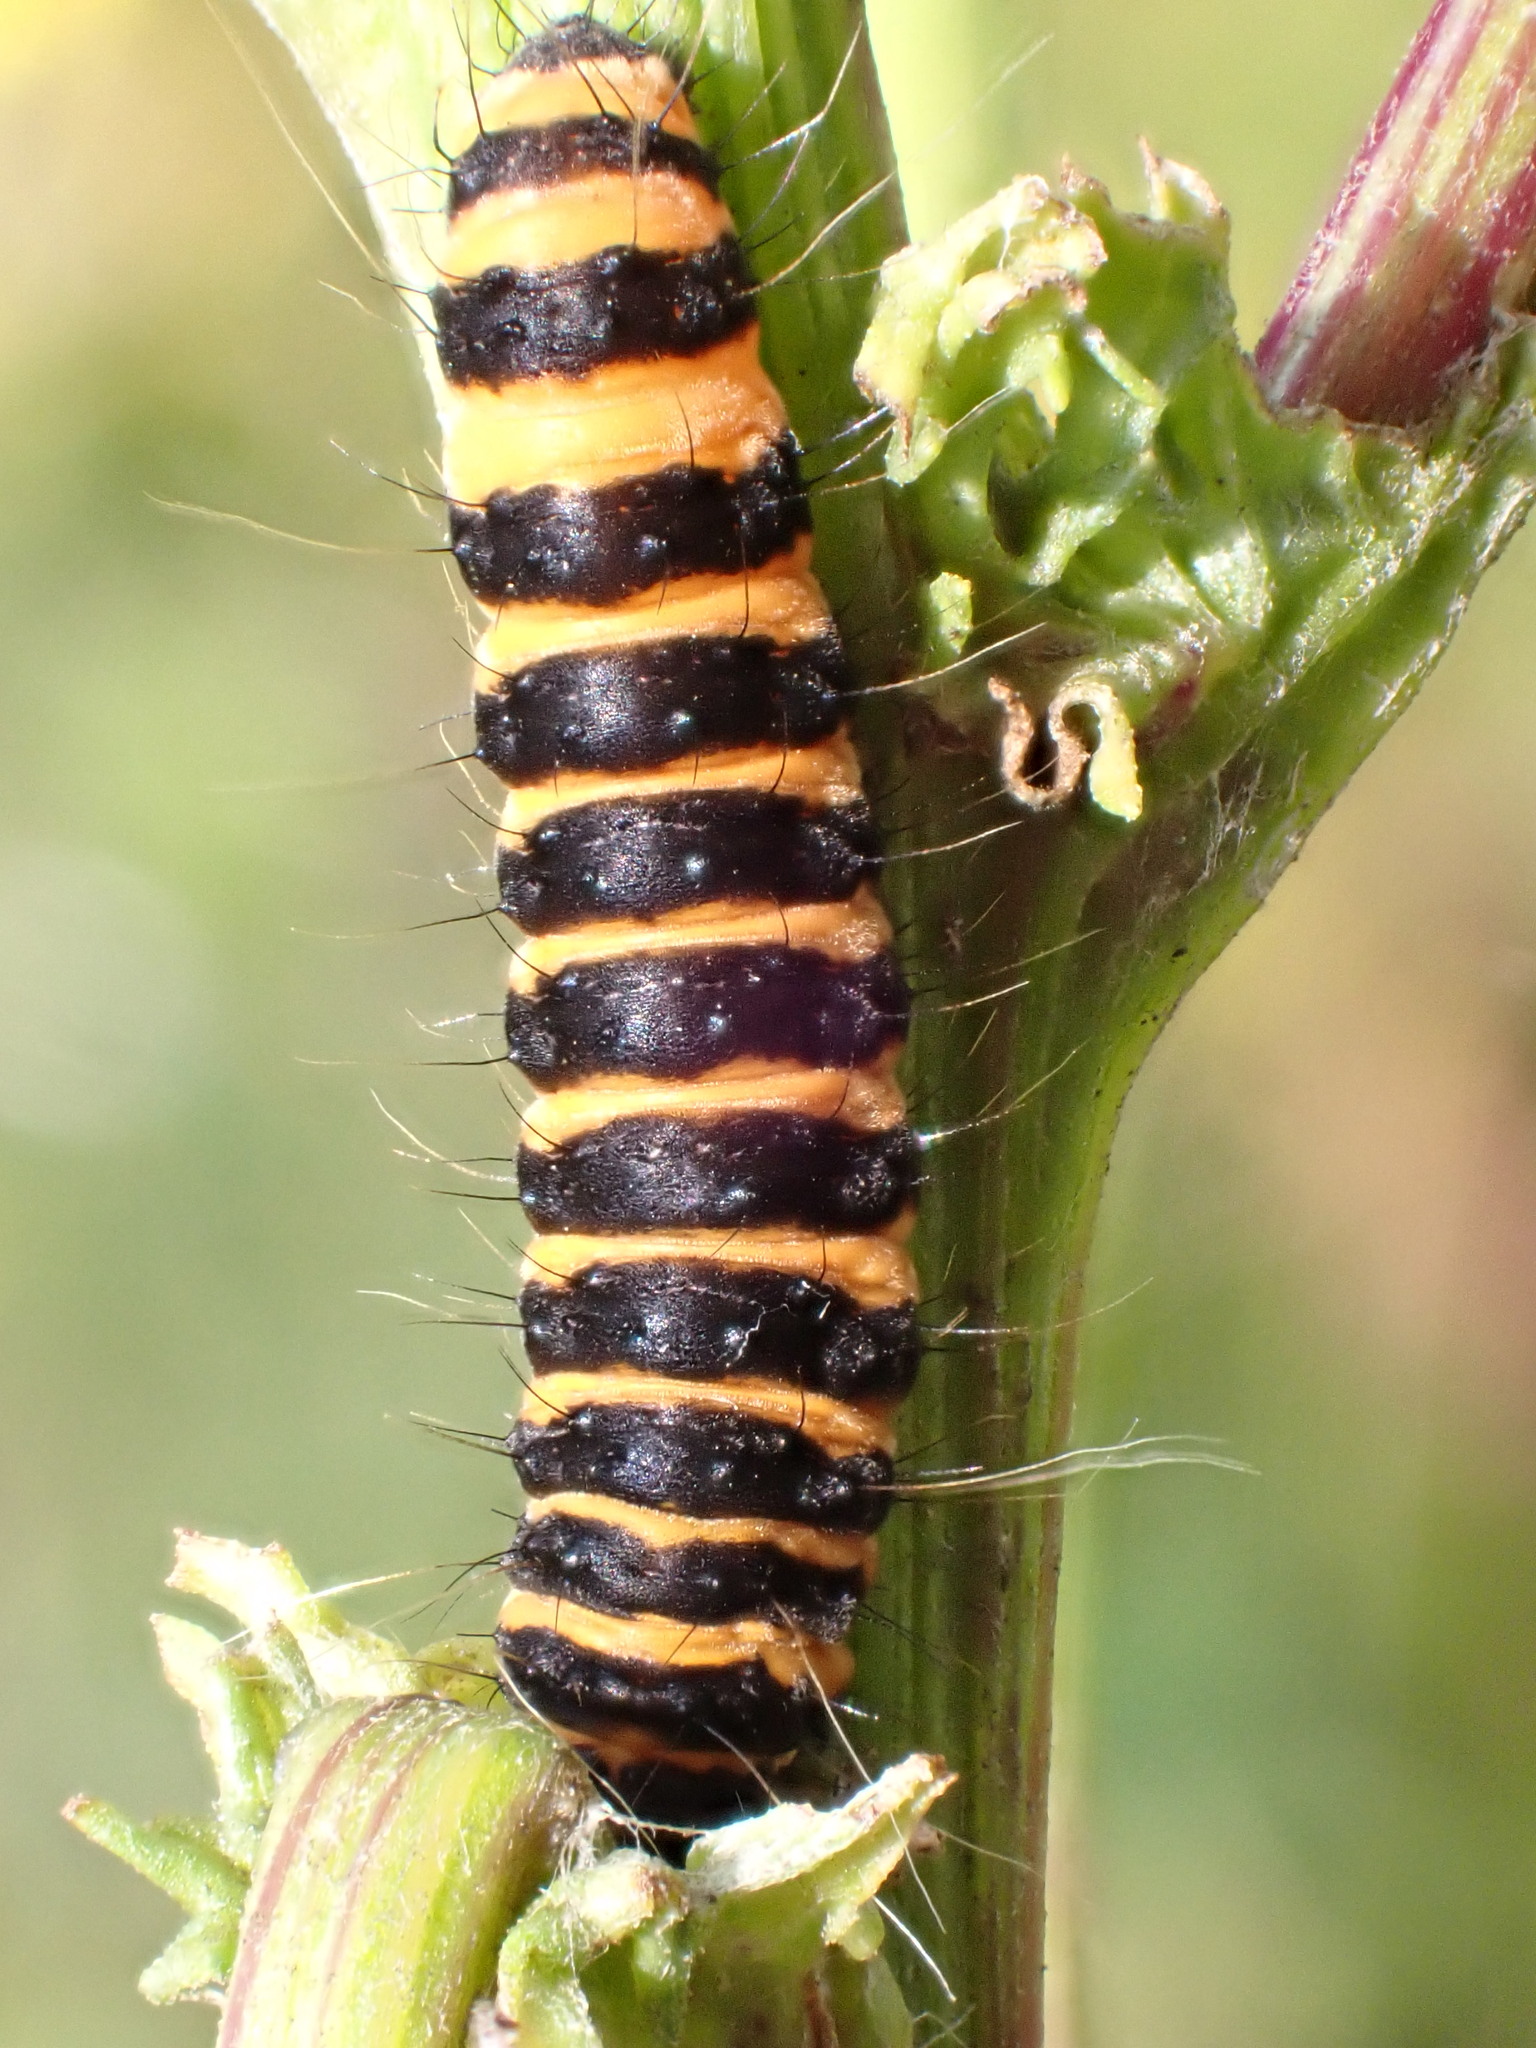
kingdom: Animalia
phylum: Arthropoda
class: Insecta
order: Lepidoptera
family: Erebidae
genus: Tyria
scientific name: Tyria jacobaeae
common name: Cinnabar
